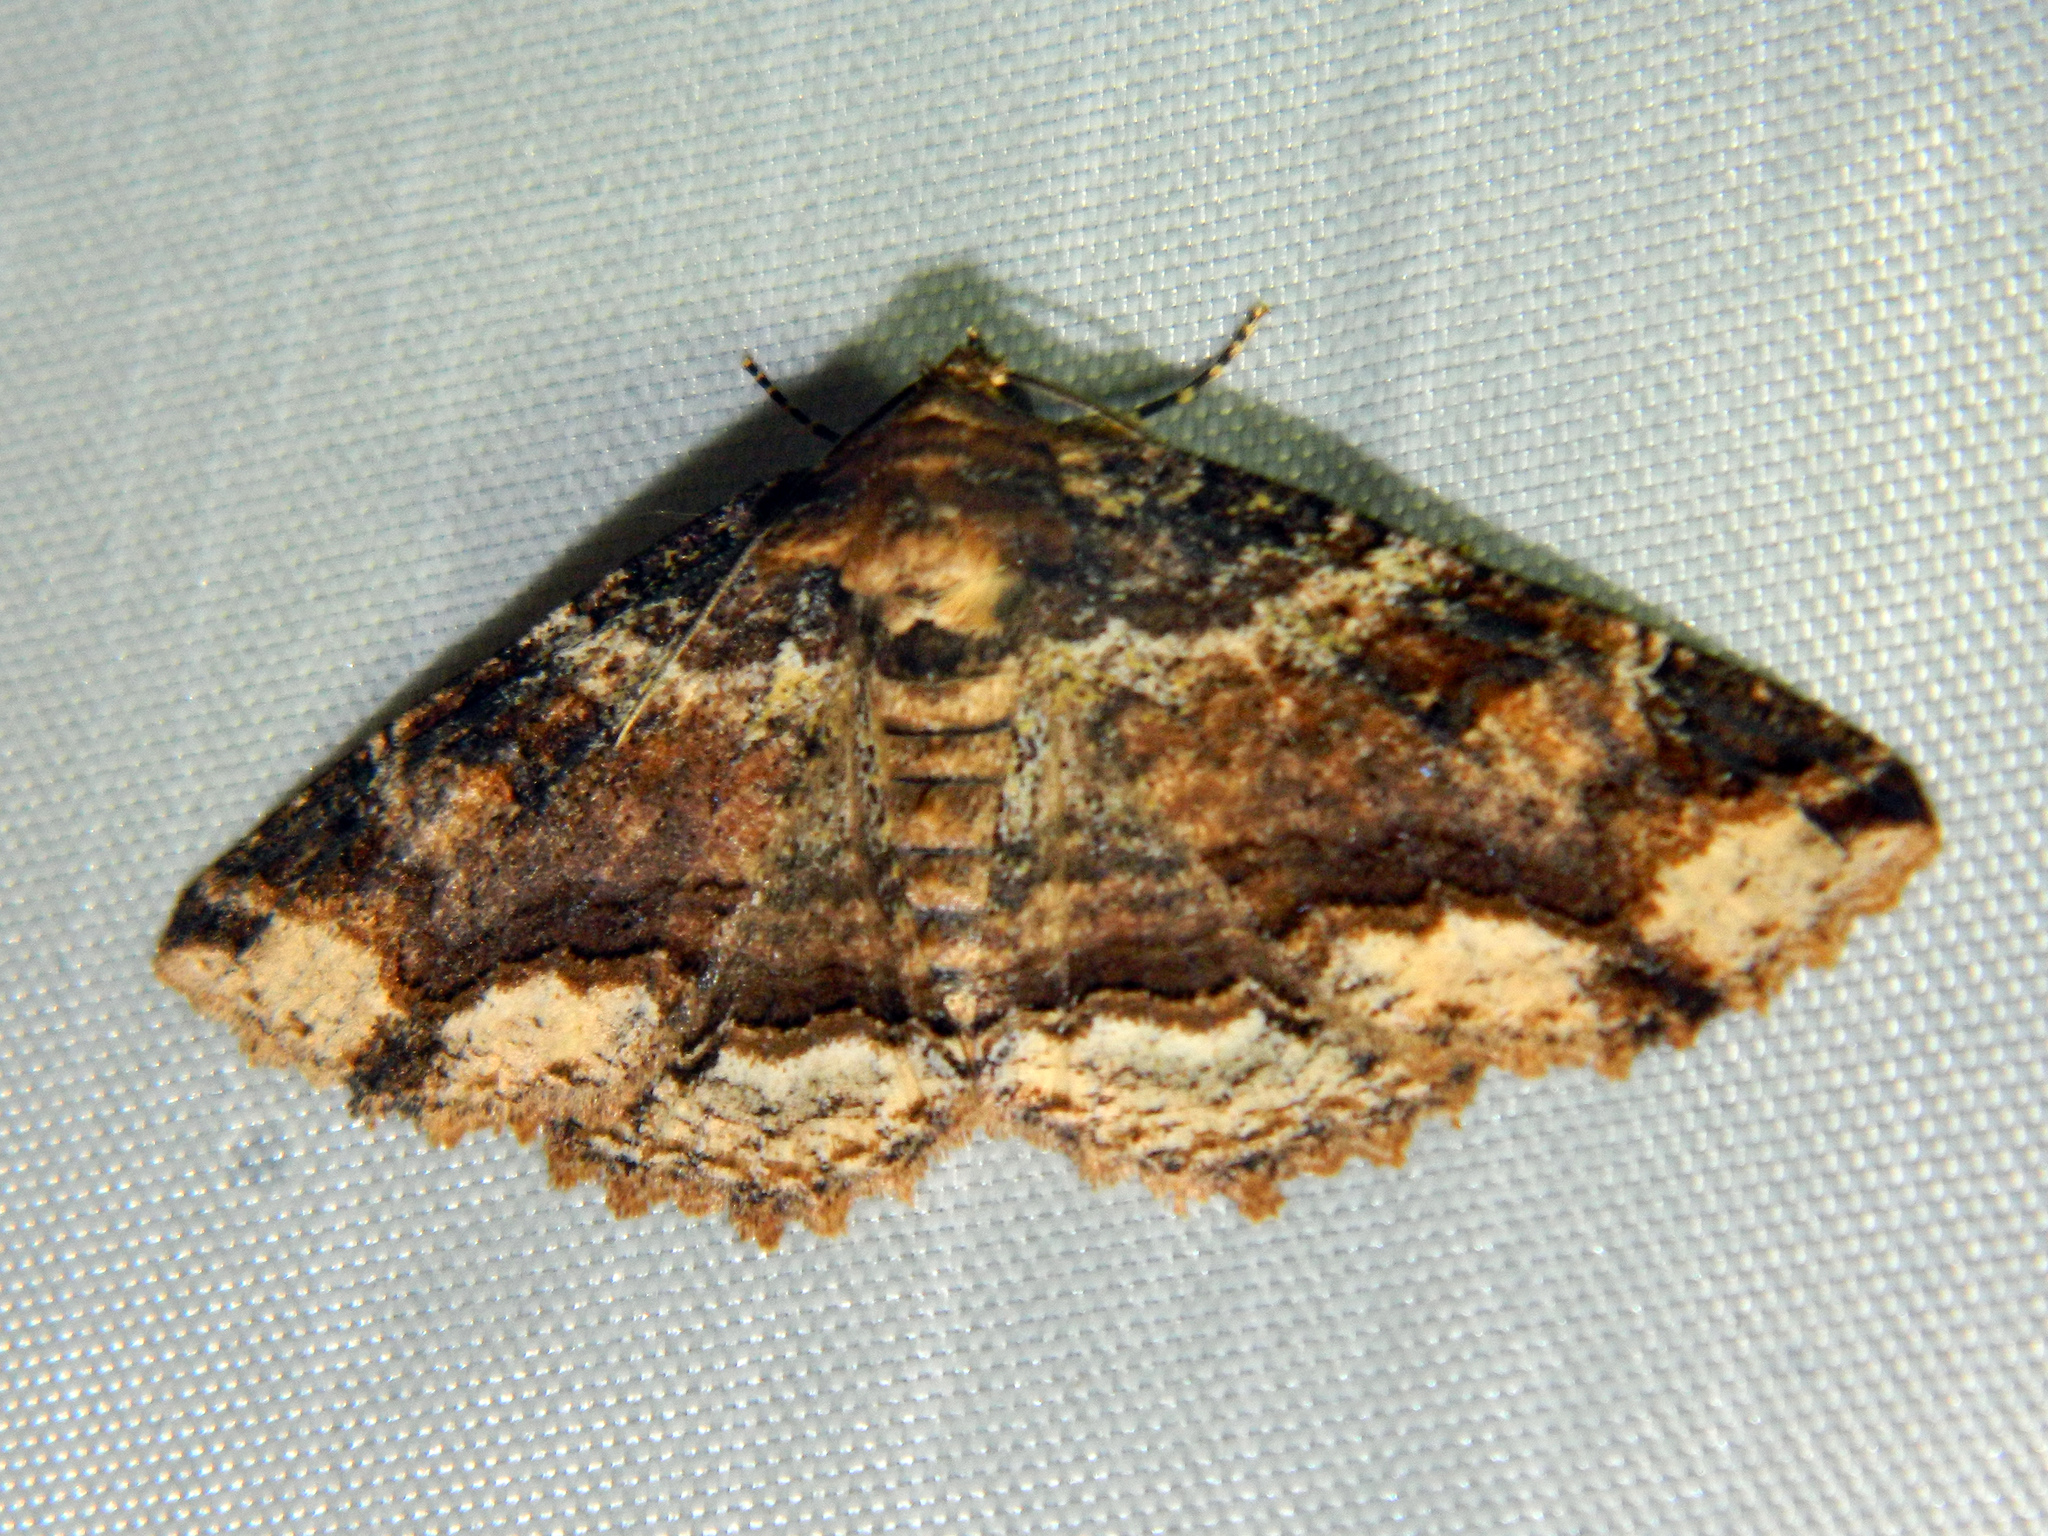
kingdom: Animalia
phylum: Arthropoda
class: Insecta
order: Lepidoptera
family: Erebidae
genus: Zale
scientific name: Zale minerea
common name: Colorful zale moth
